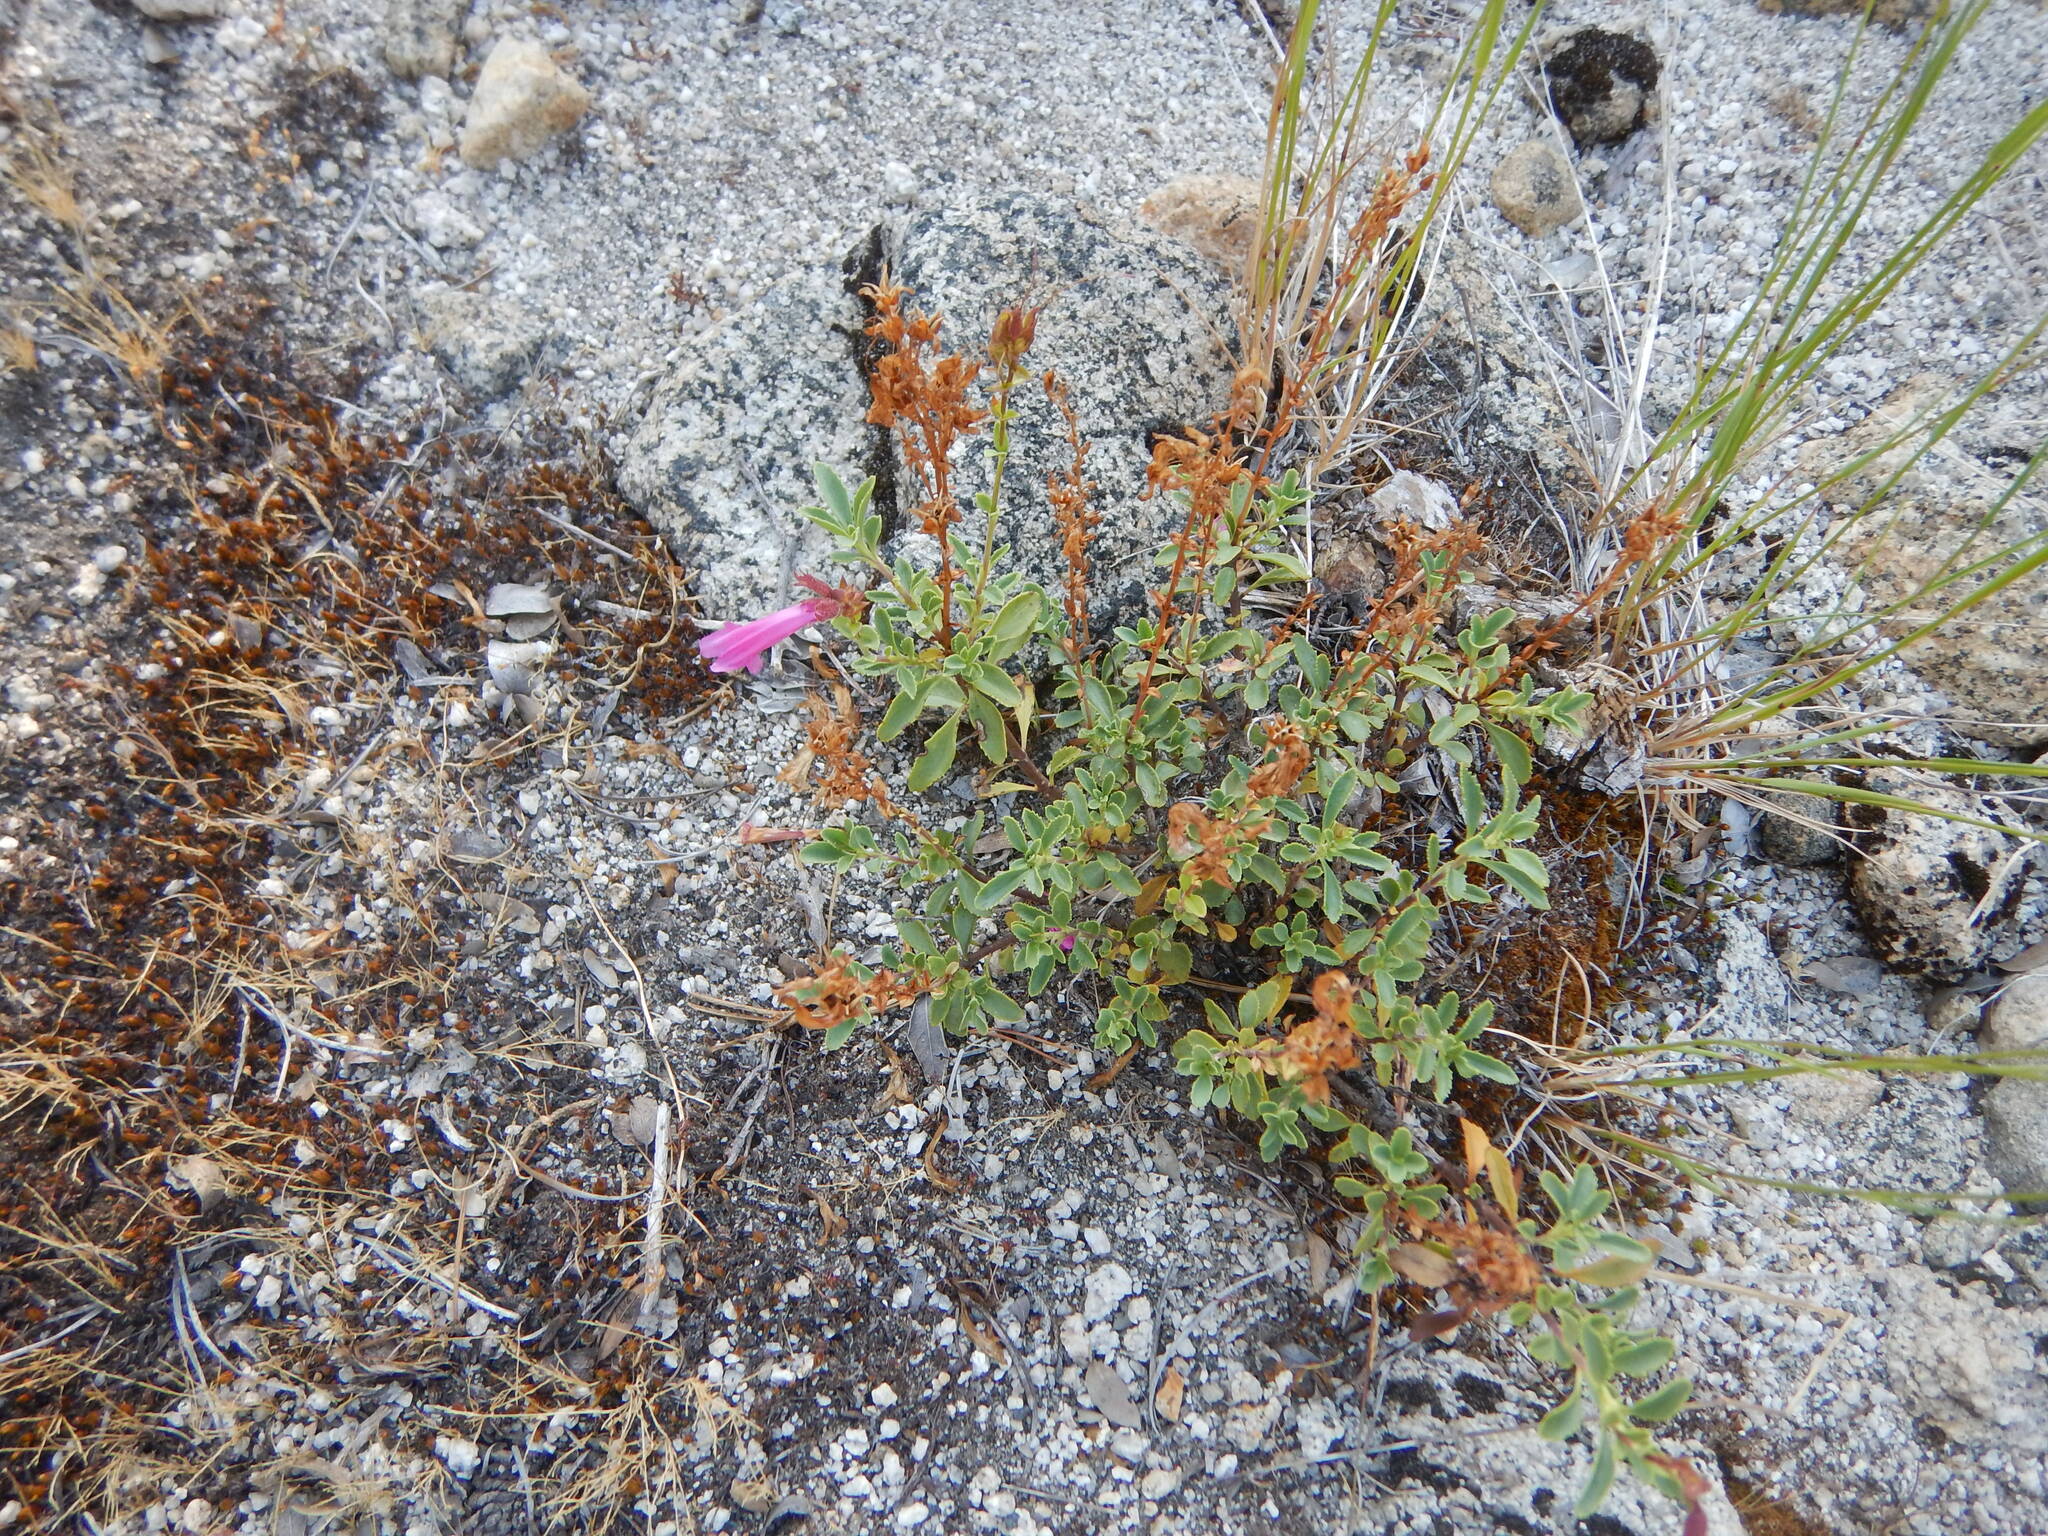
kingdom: Plantae
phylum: Tracheophyta
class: Magnoliopsida
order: Lamiales
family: Plantaginaceae
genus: Penstemon
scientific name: Penstemon newberryi
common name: Mountain-pride
